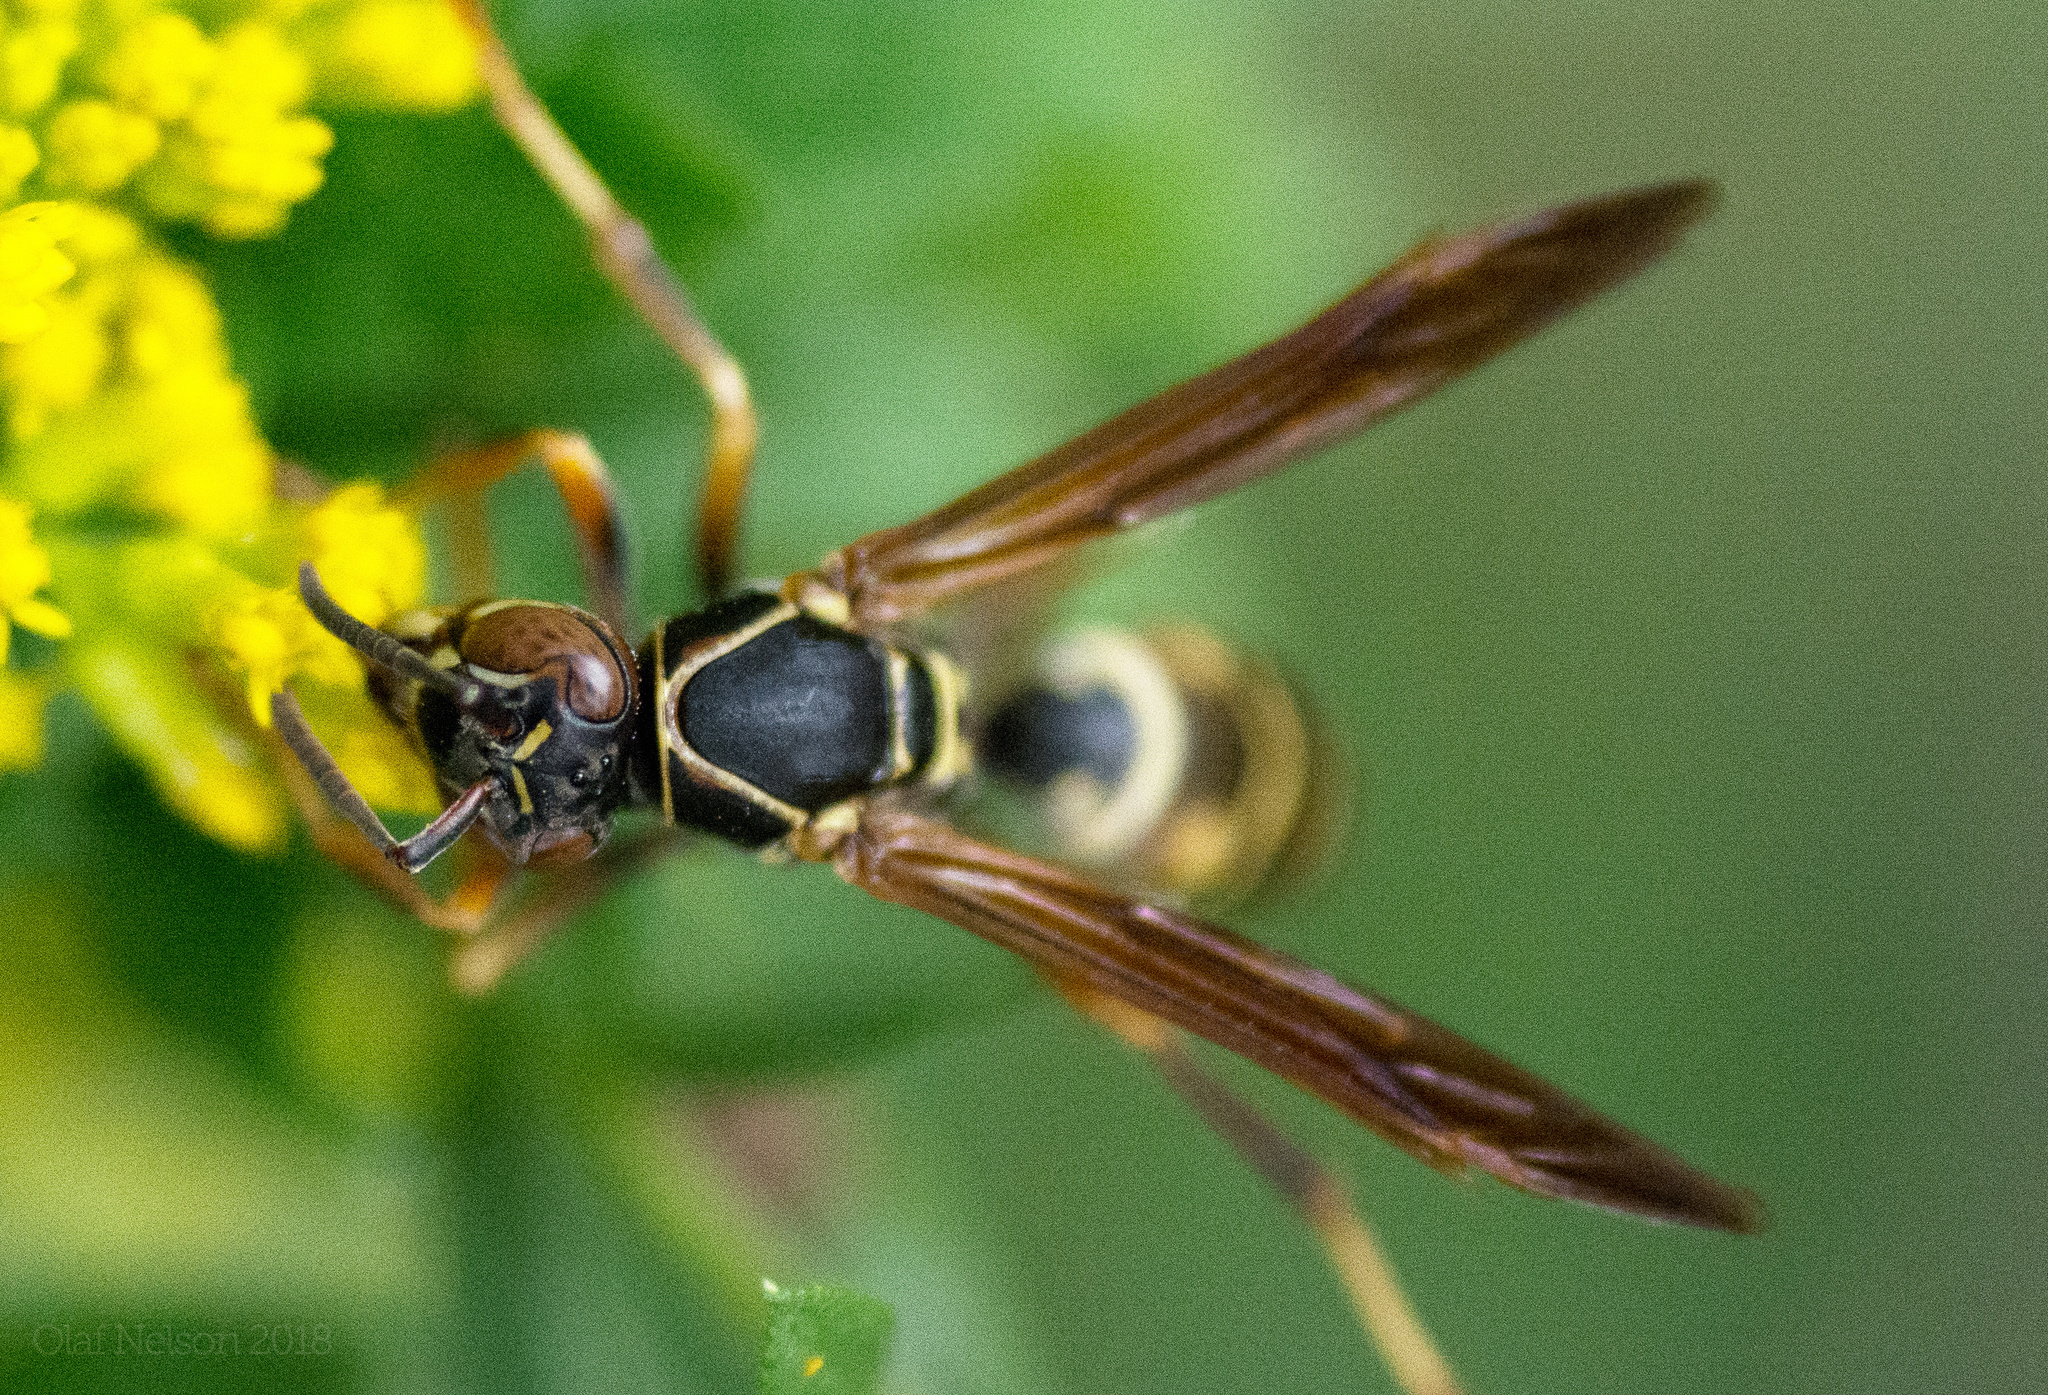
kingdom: Animalia
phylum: Arthropoda
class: Insecta
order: Hymenoptera
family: Eumenidae
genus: Polistes
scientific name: Polistes fuscatus
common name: Dark paper wasp
